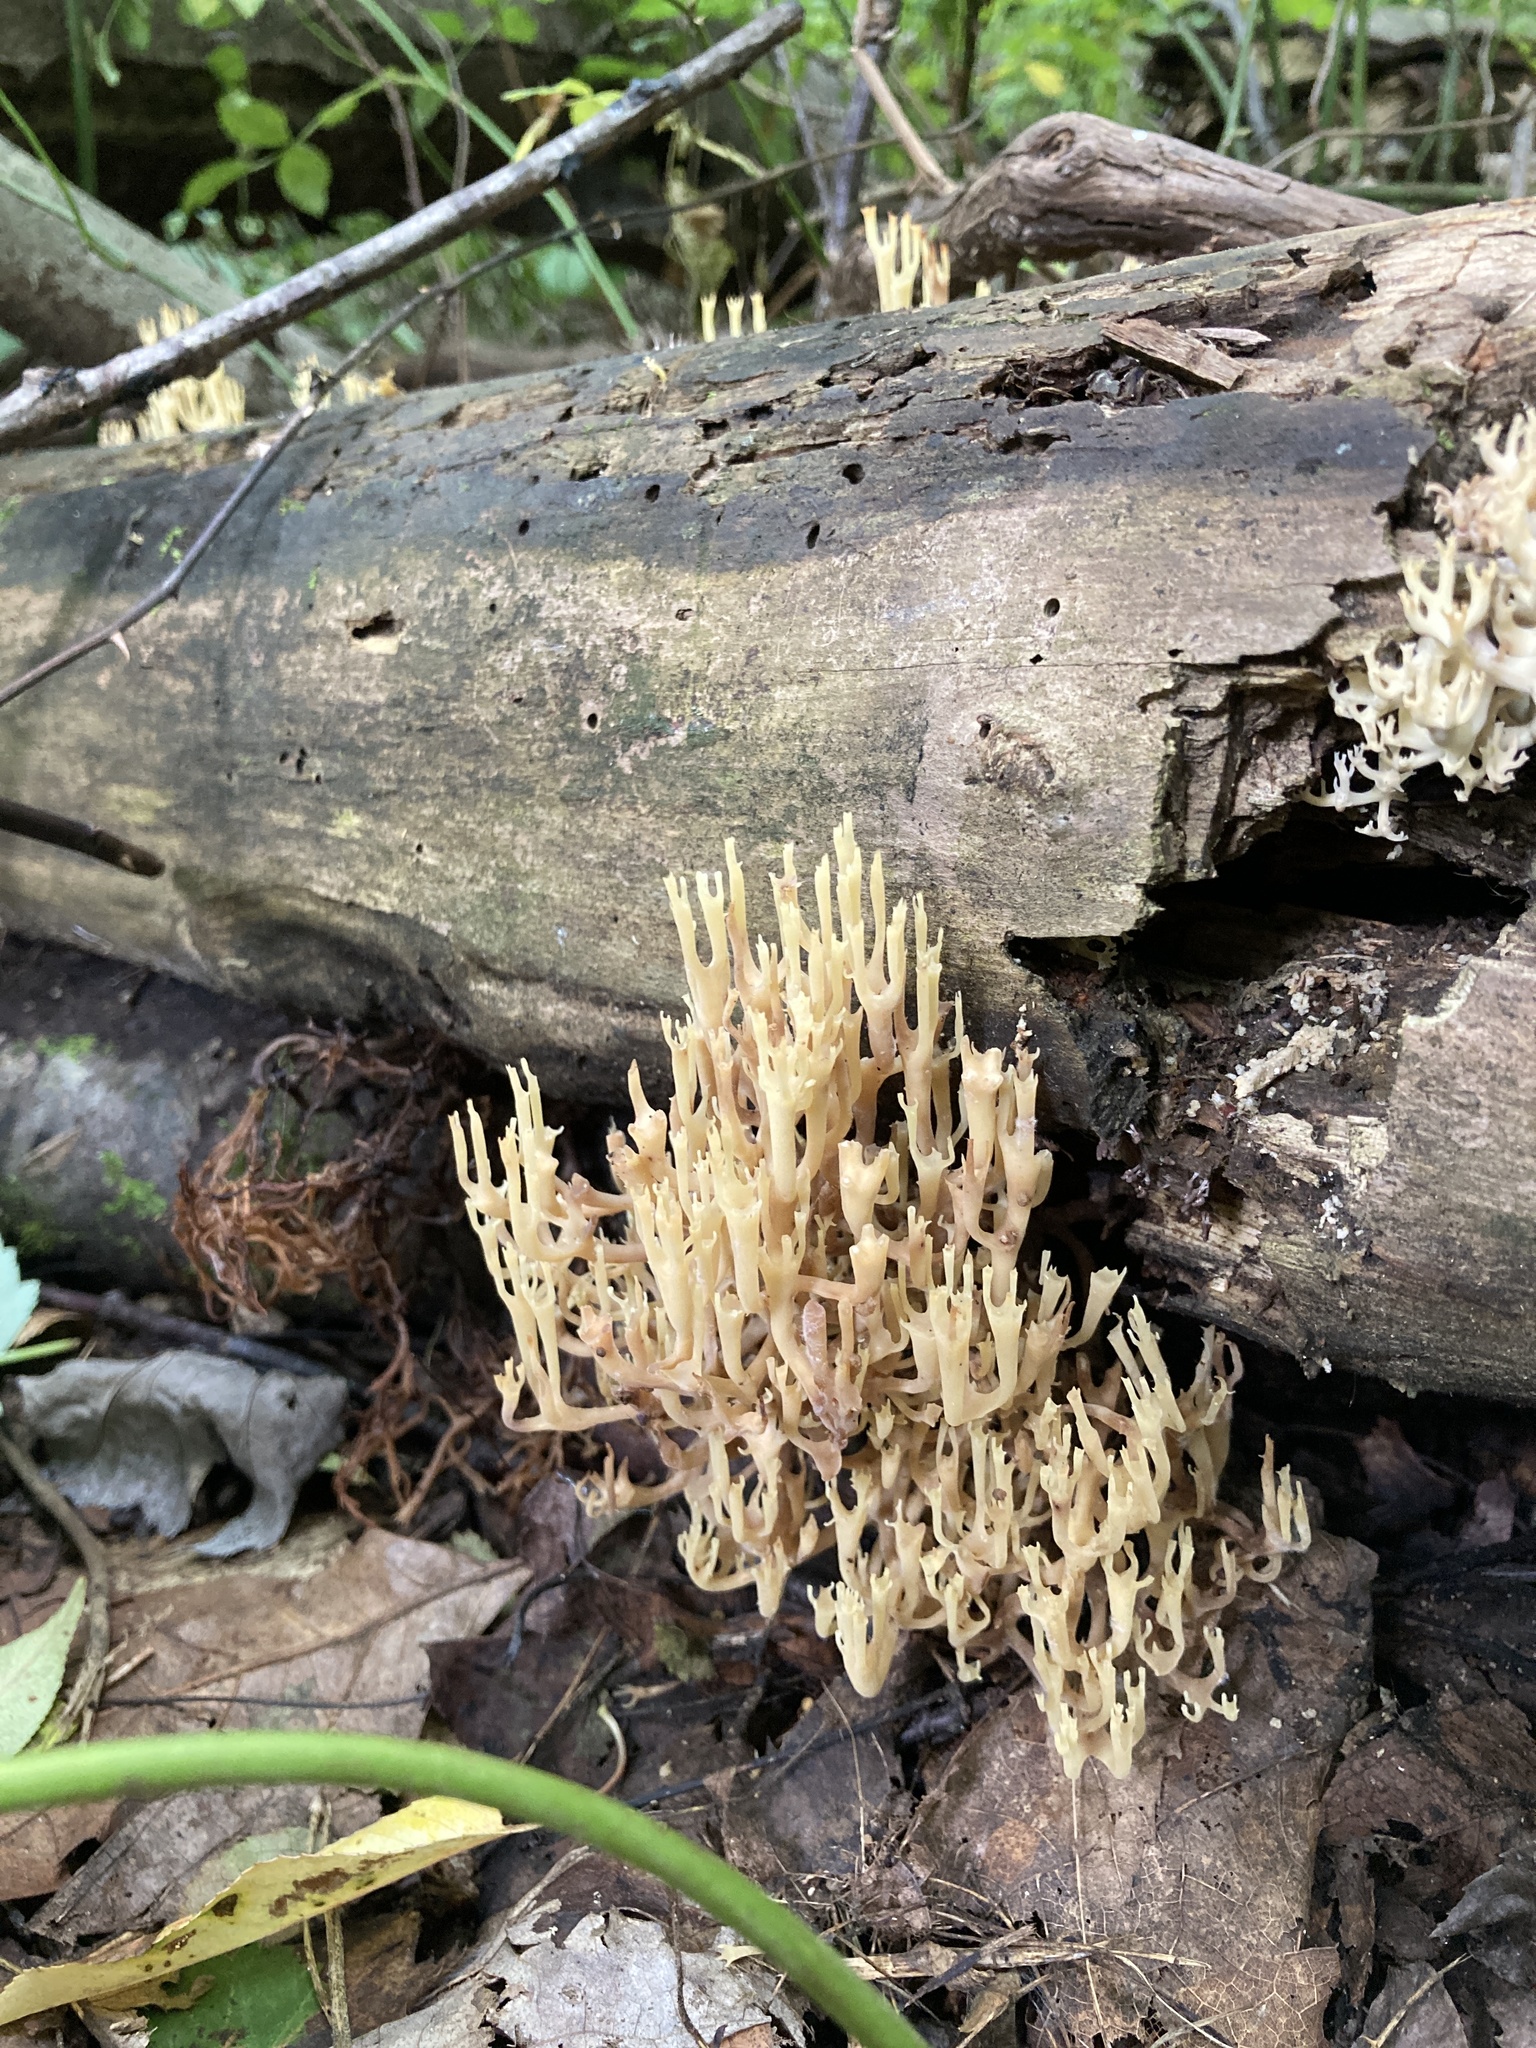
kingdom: Fungi
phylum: Basidiomycota
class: Agaricomycetes
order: Russulales
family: Auriscalpiaceae
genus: Artomyces
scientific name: Artomyces pyxidatus
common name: Crown-tipped coral fungus
